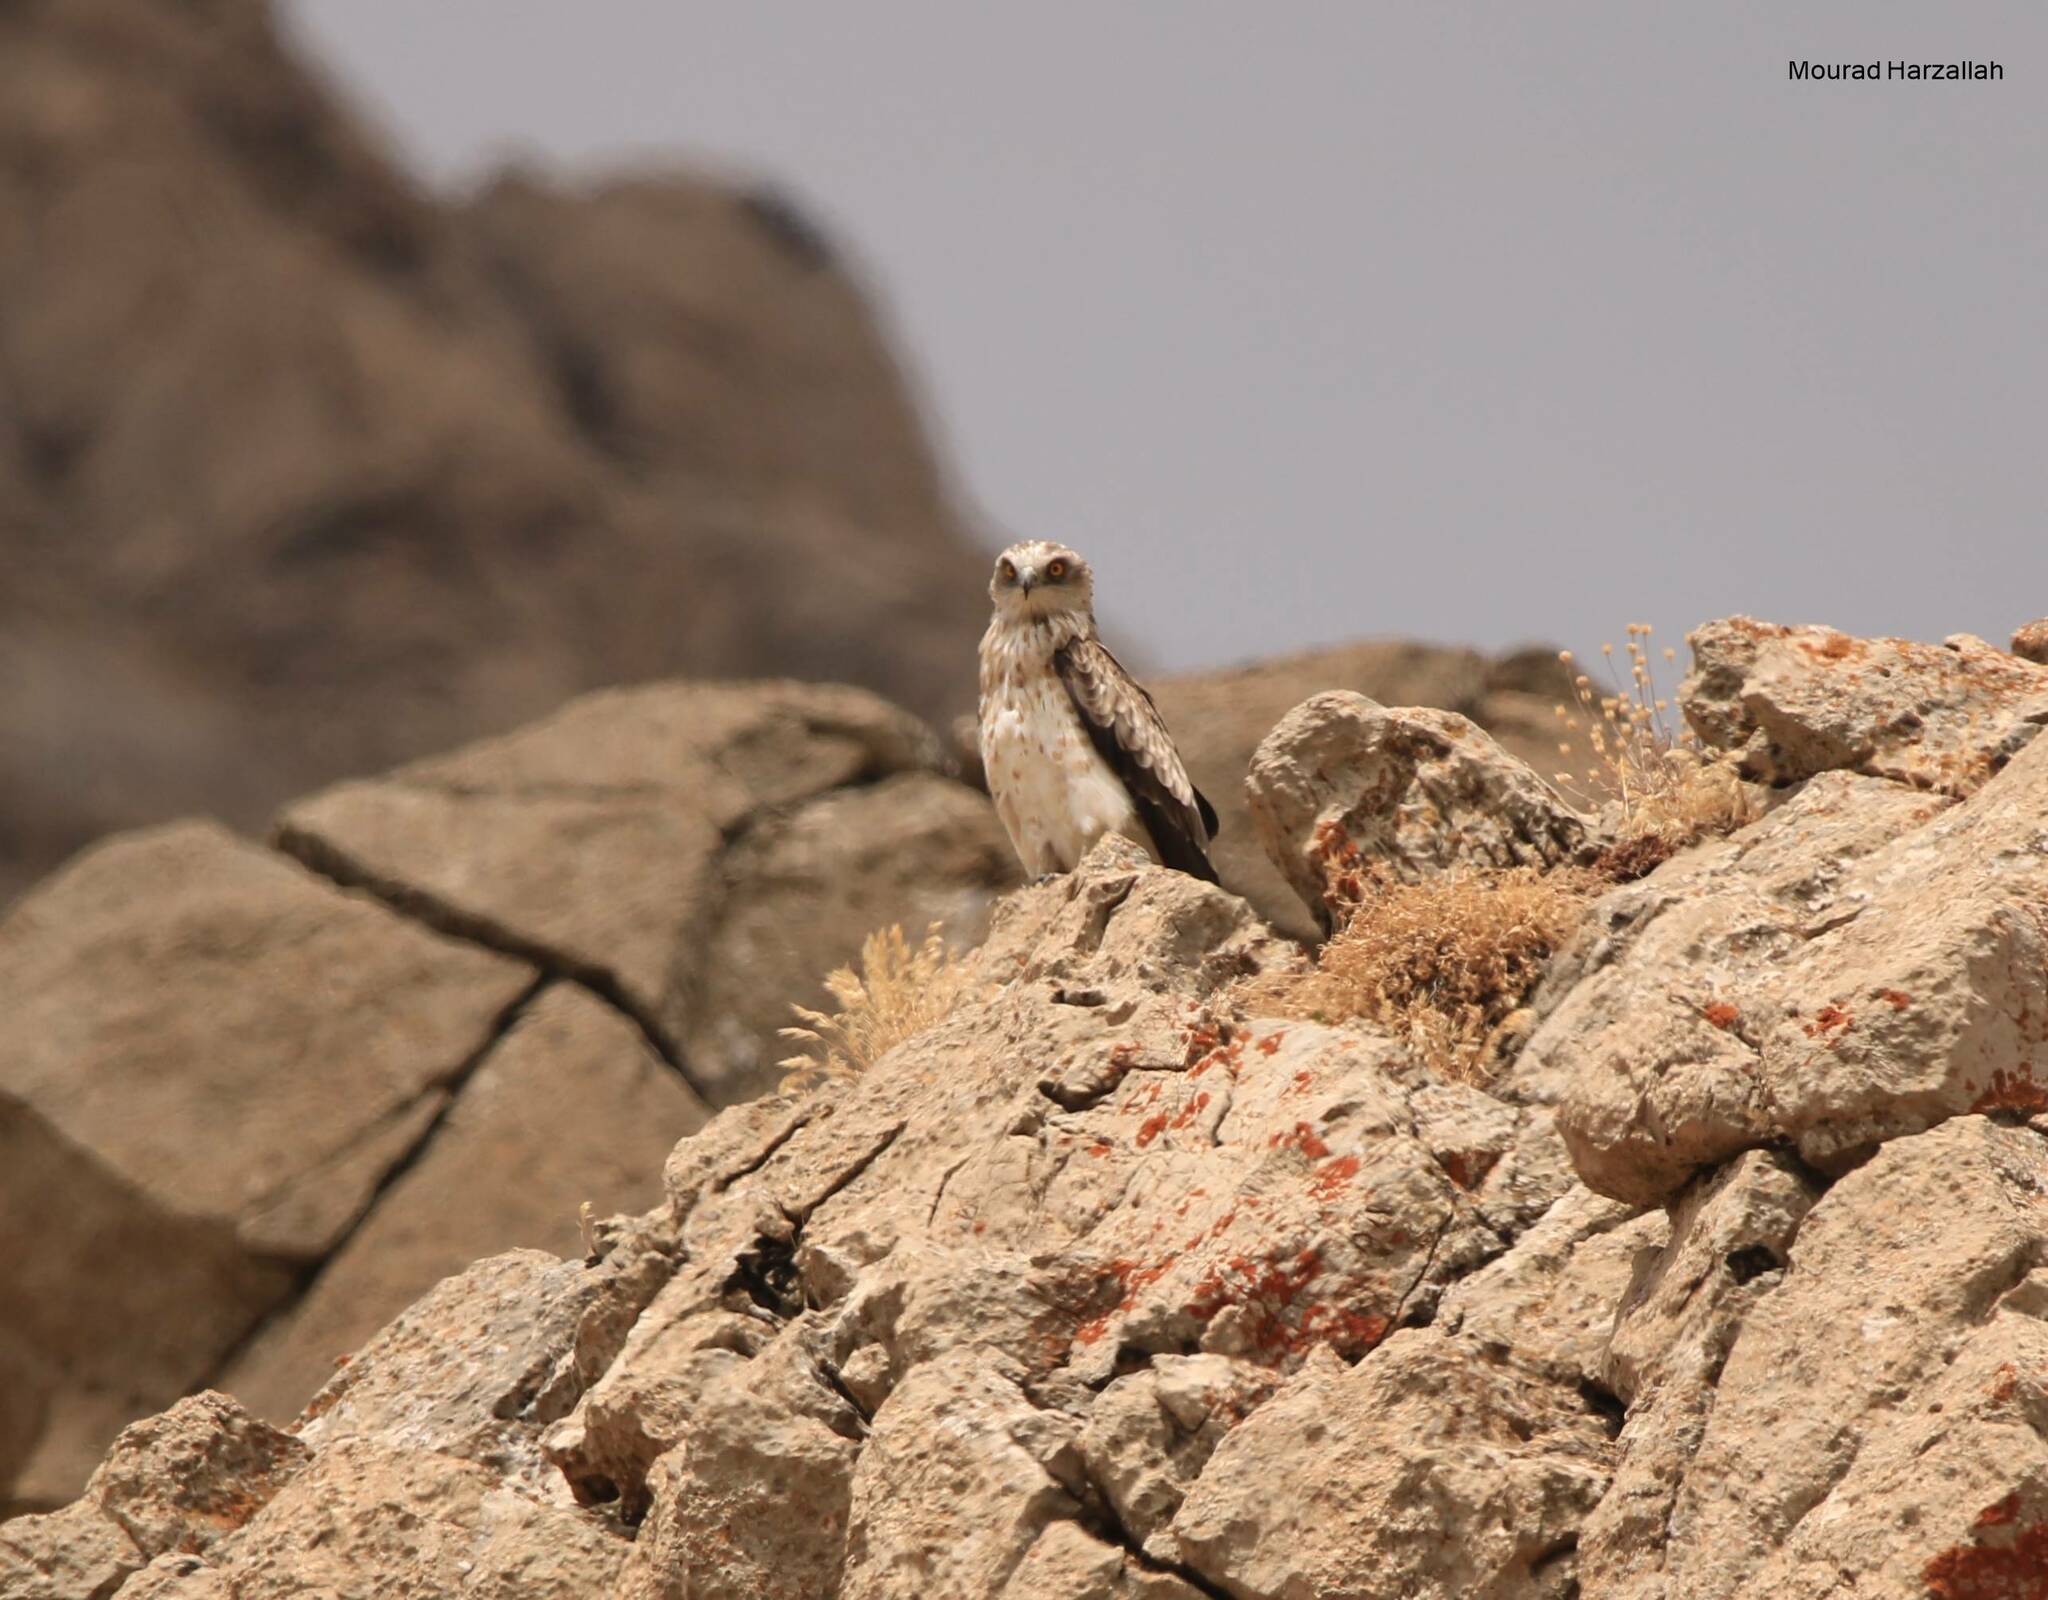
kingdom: Animalia
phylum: Chordata
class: Aves
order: Accipitriformes
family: Accipitridae
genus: Circaetus
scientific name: Circaetus gallicus
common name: Short-toed snake eagle
